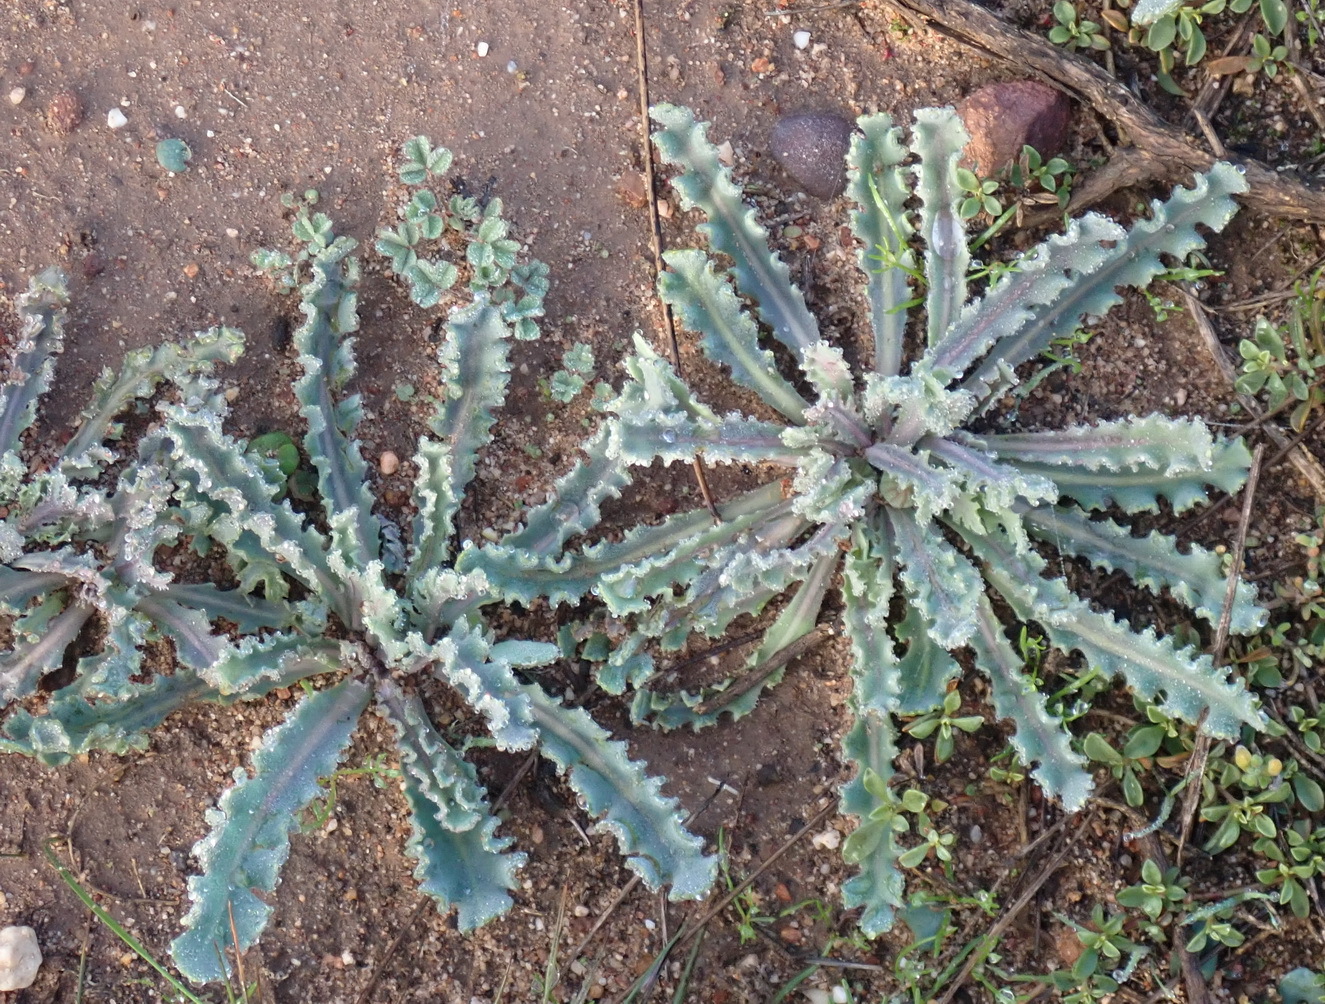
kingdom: Plantae
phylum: Tracheophyta
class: Magnoliopsida
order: Asterales
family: Asteraceae
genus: Othonna
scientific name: Othonna auriculifolia
